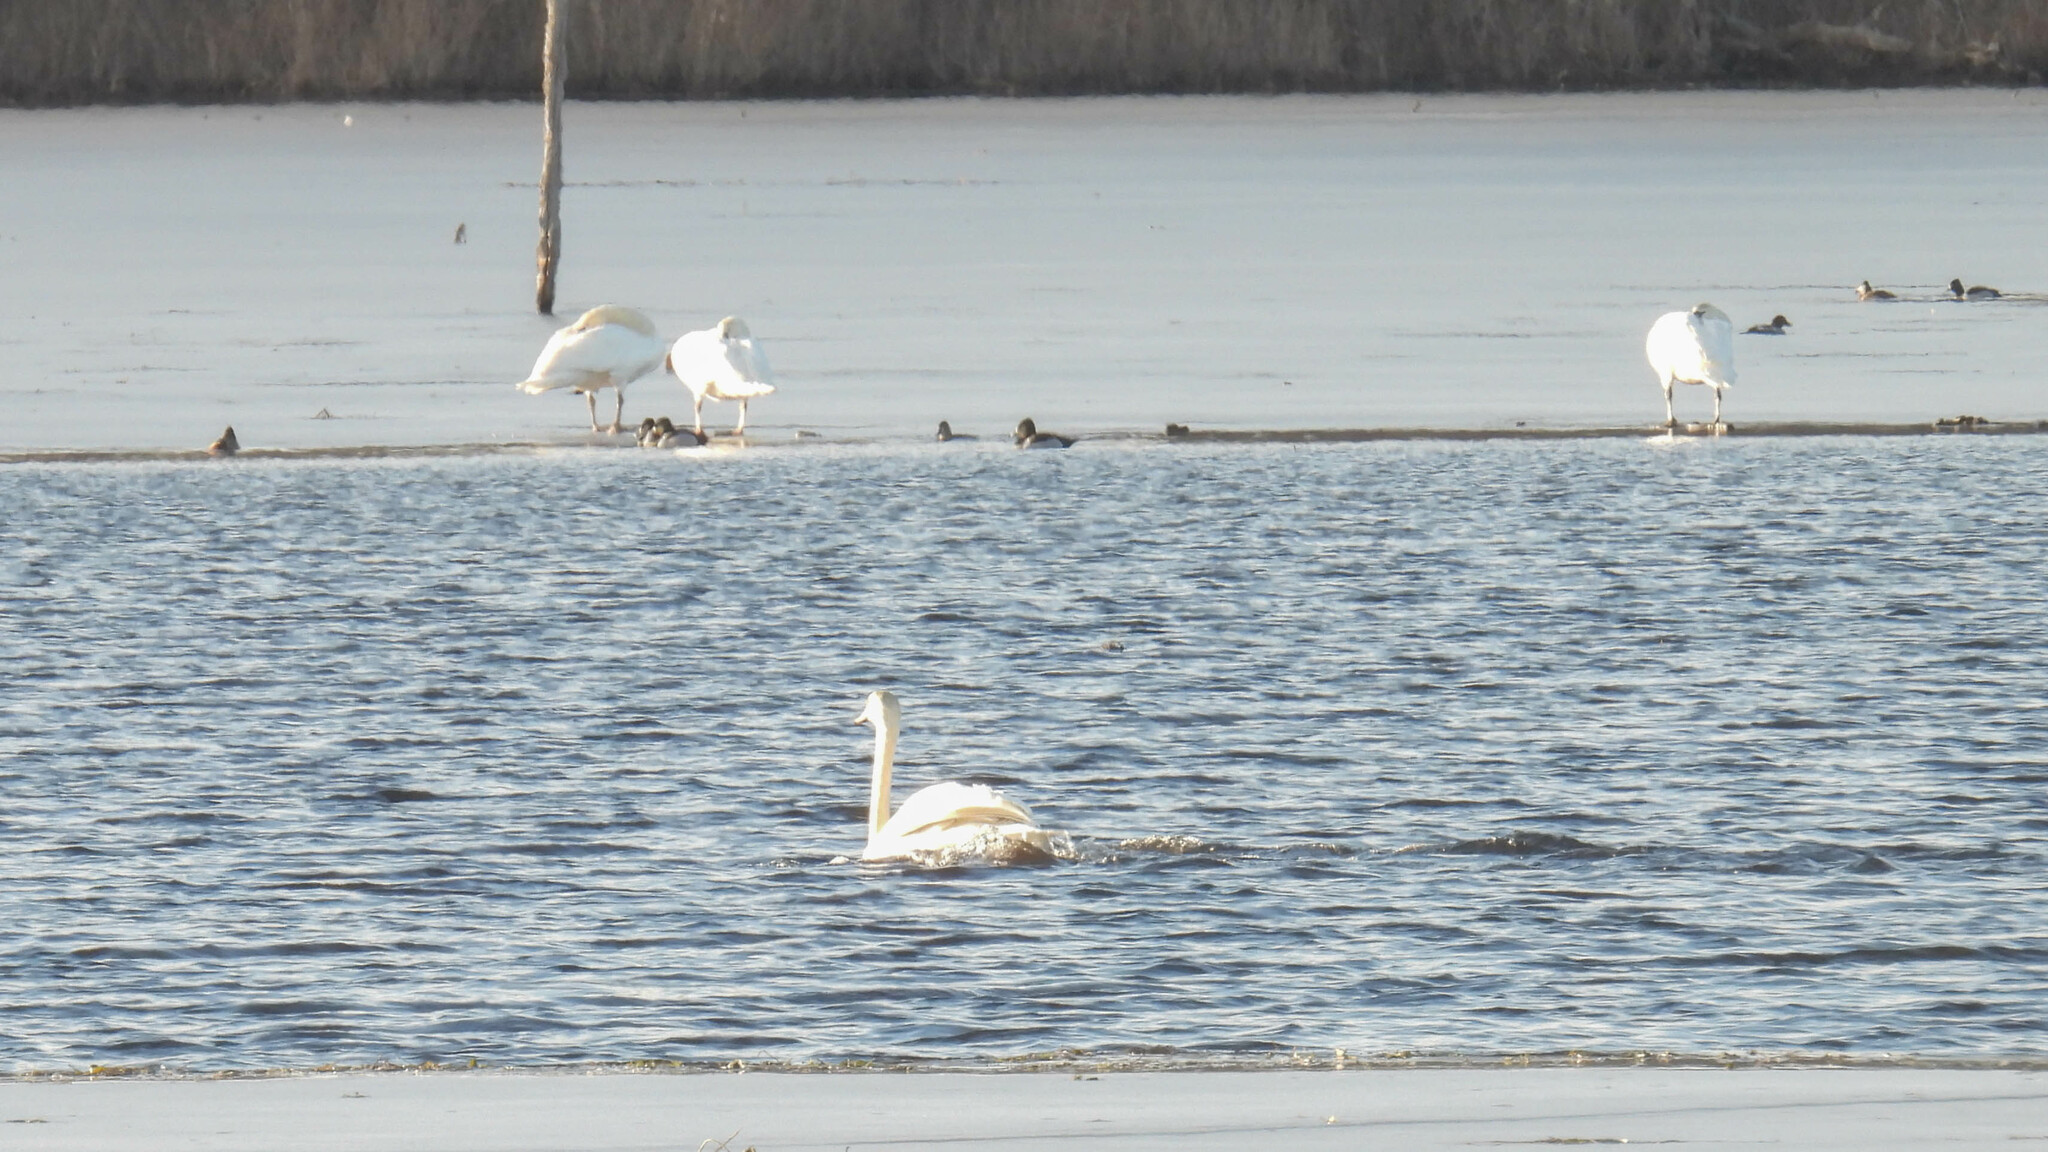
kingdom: Animalia
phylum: Chordata
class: Aves
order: Anseriformes
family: Anatidae
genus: Cygnus
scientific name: Cygnus olor
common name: Mute swan
